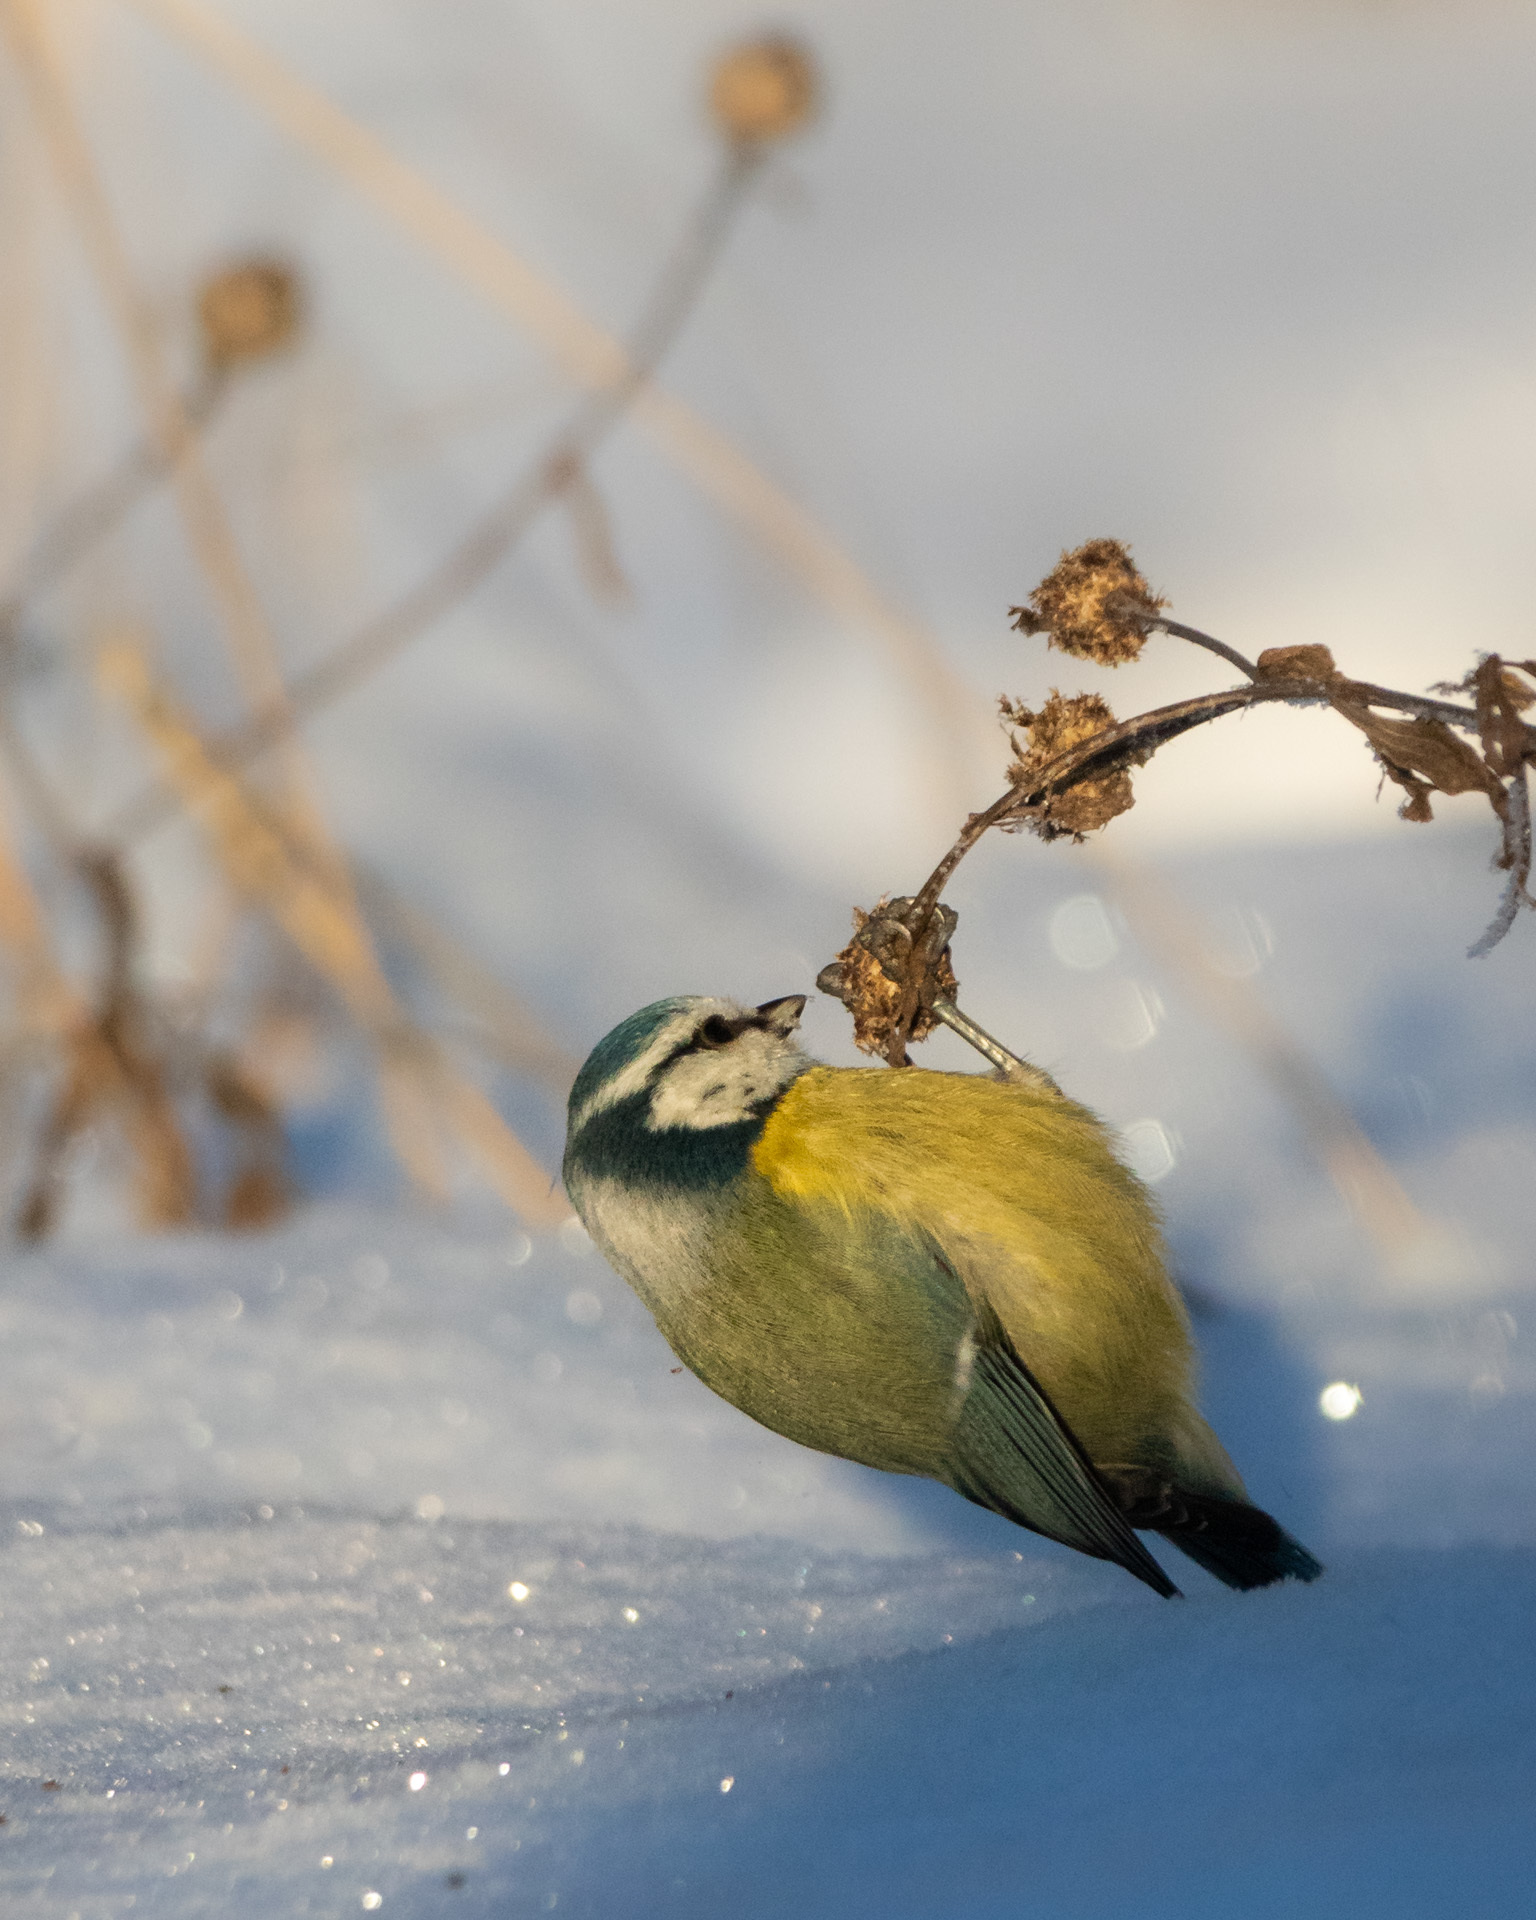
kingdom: Animalia
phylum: Chordata
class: Aves
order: Passeriformes
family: Paridae
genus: Cyanistes
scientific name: Cyanistes caeruleus
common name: Eurasian blue tit
